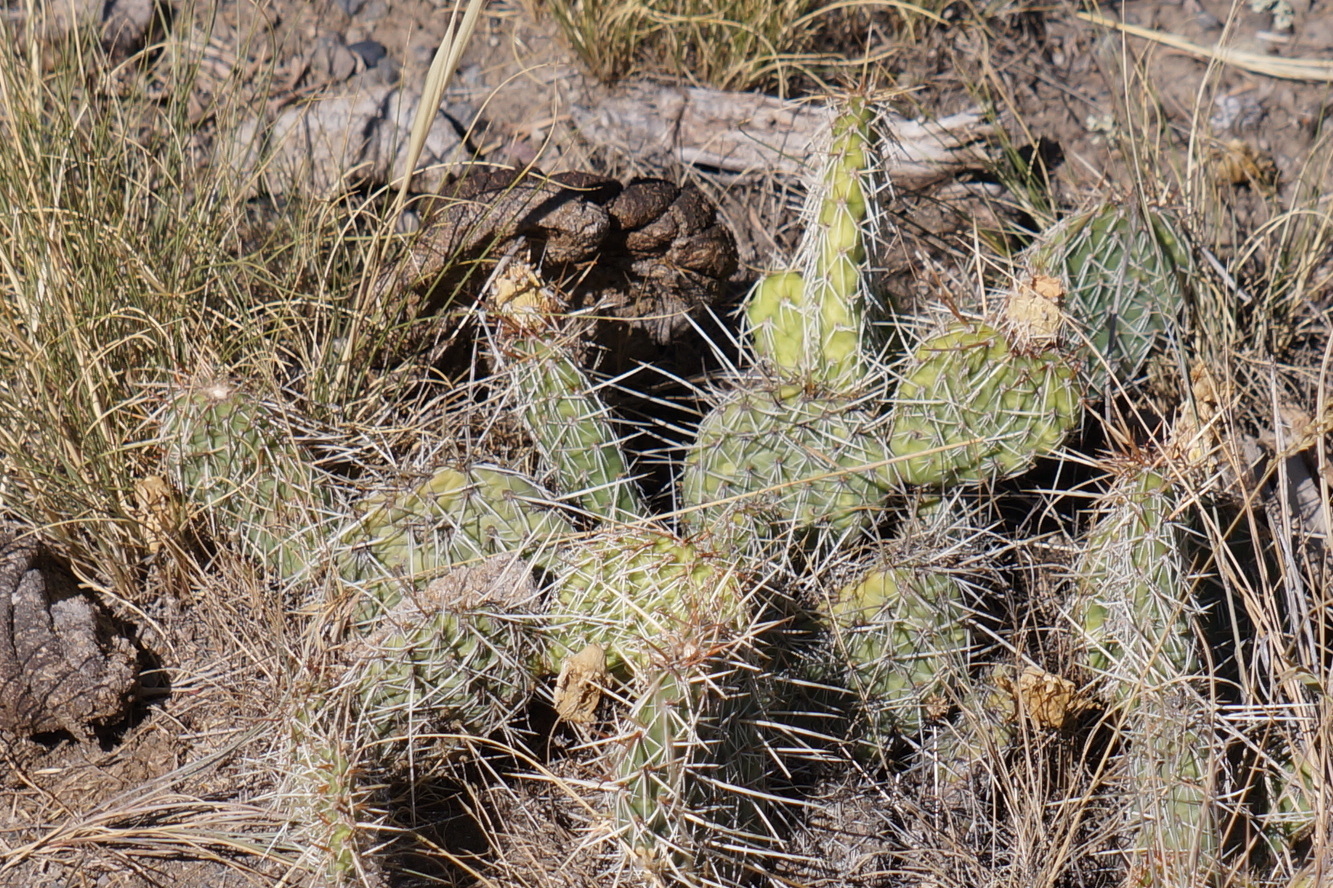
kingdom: Plantae
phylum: Tracheophyta
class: Magnoliopsida
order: Caryophyllales
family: Cactaceae
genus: Opuntia
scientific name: Opuntia polyacantha
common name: Plains prickly-pear
